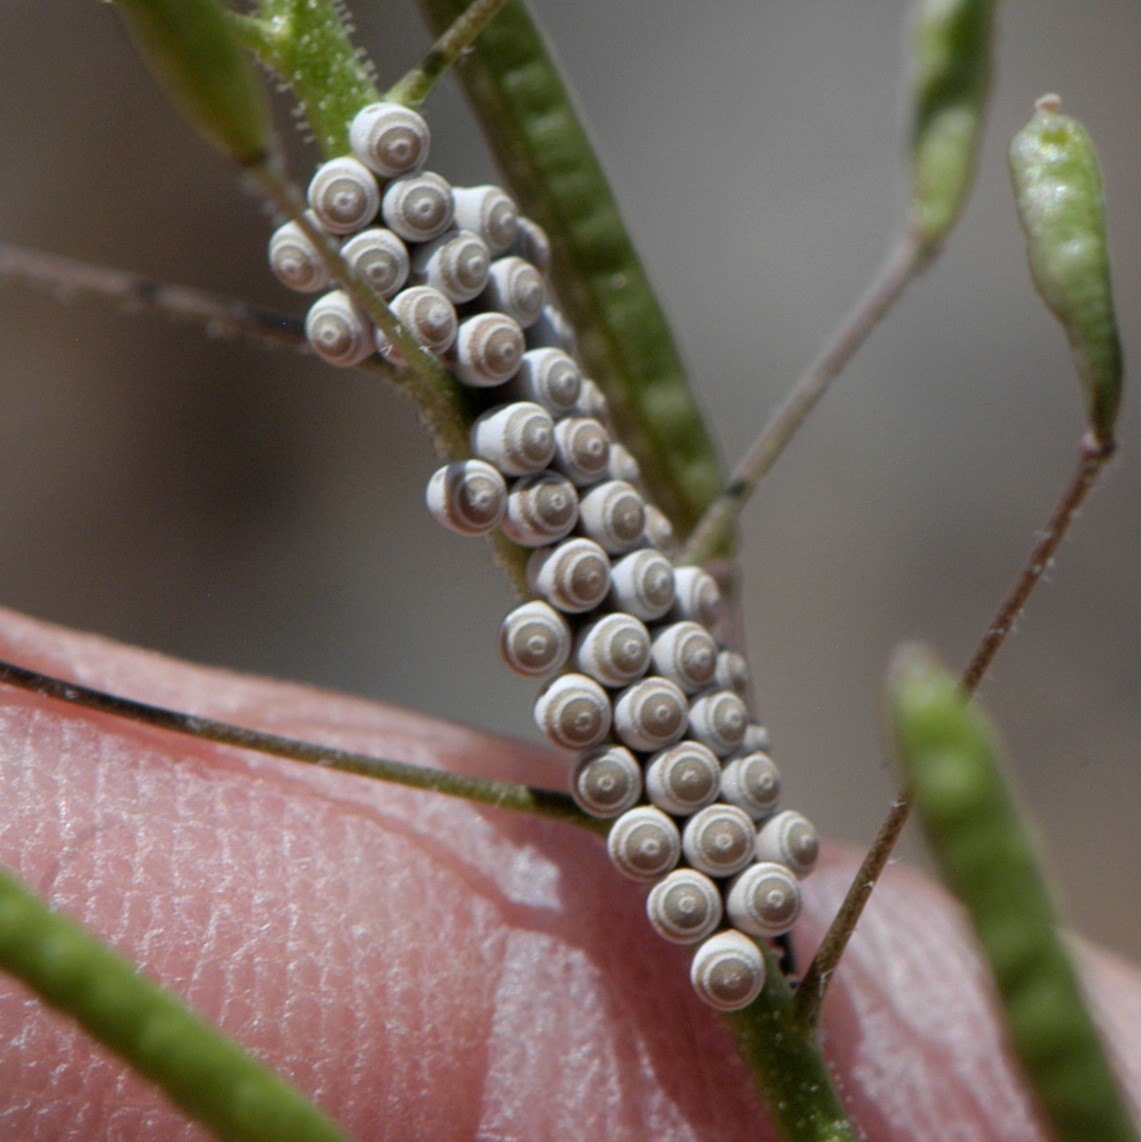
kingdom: Animalia
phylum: Arthropoda
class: Insecta
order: Hemiptera
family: Pentatomidae
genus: Chlorochroa
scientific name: Chlorochroa
